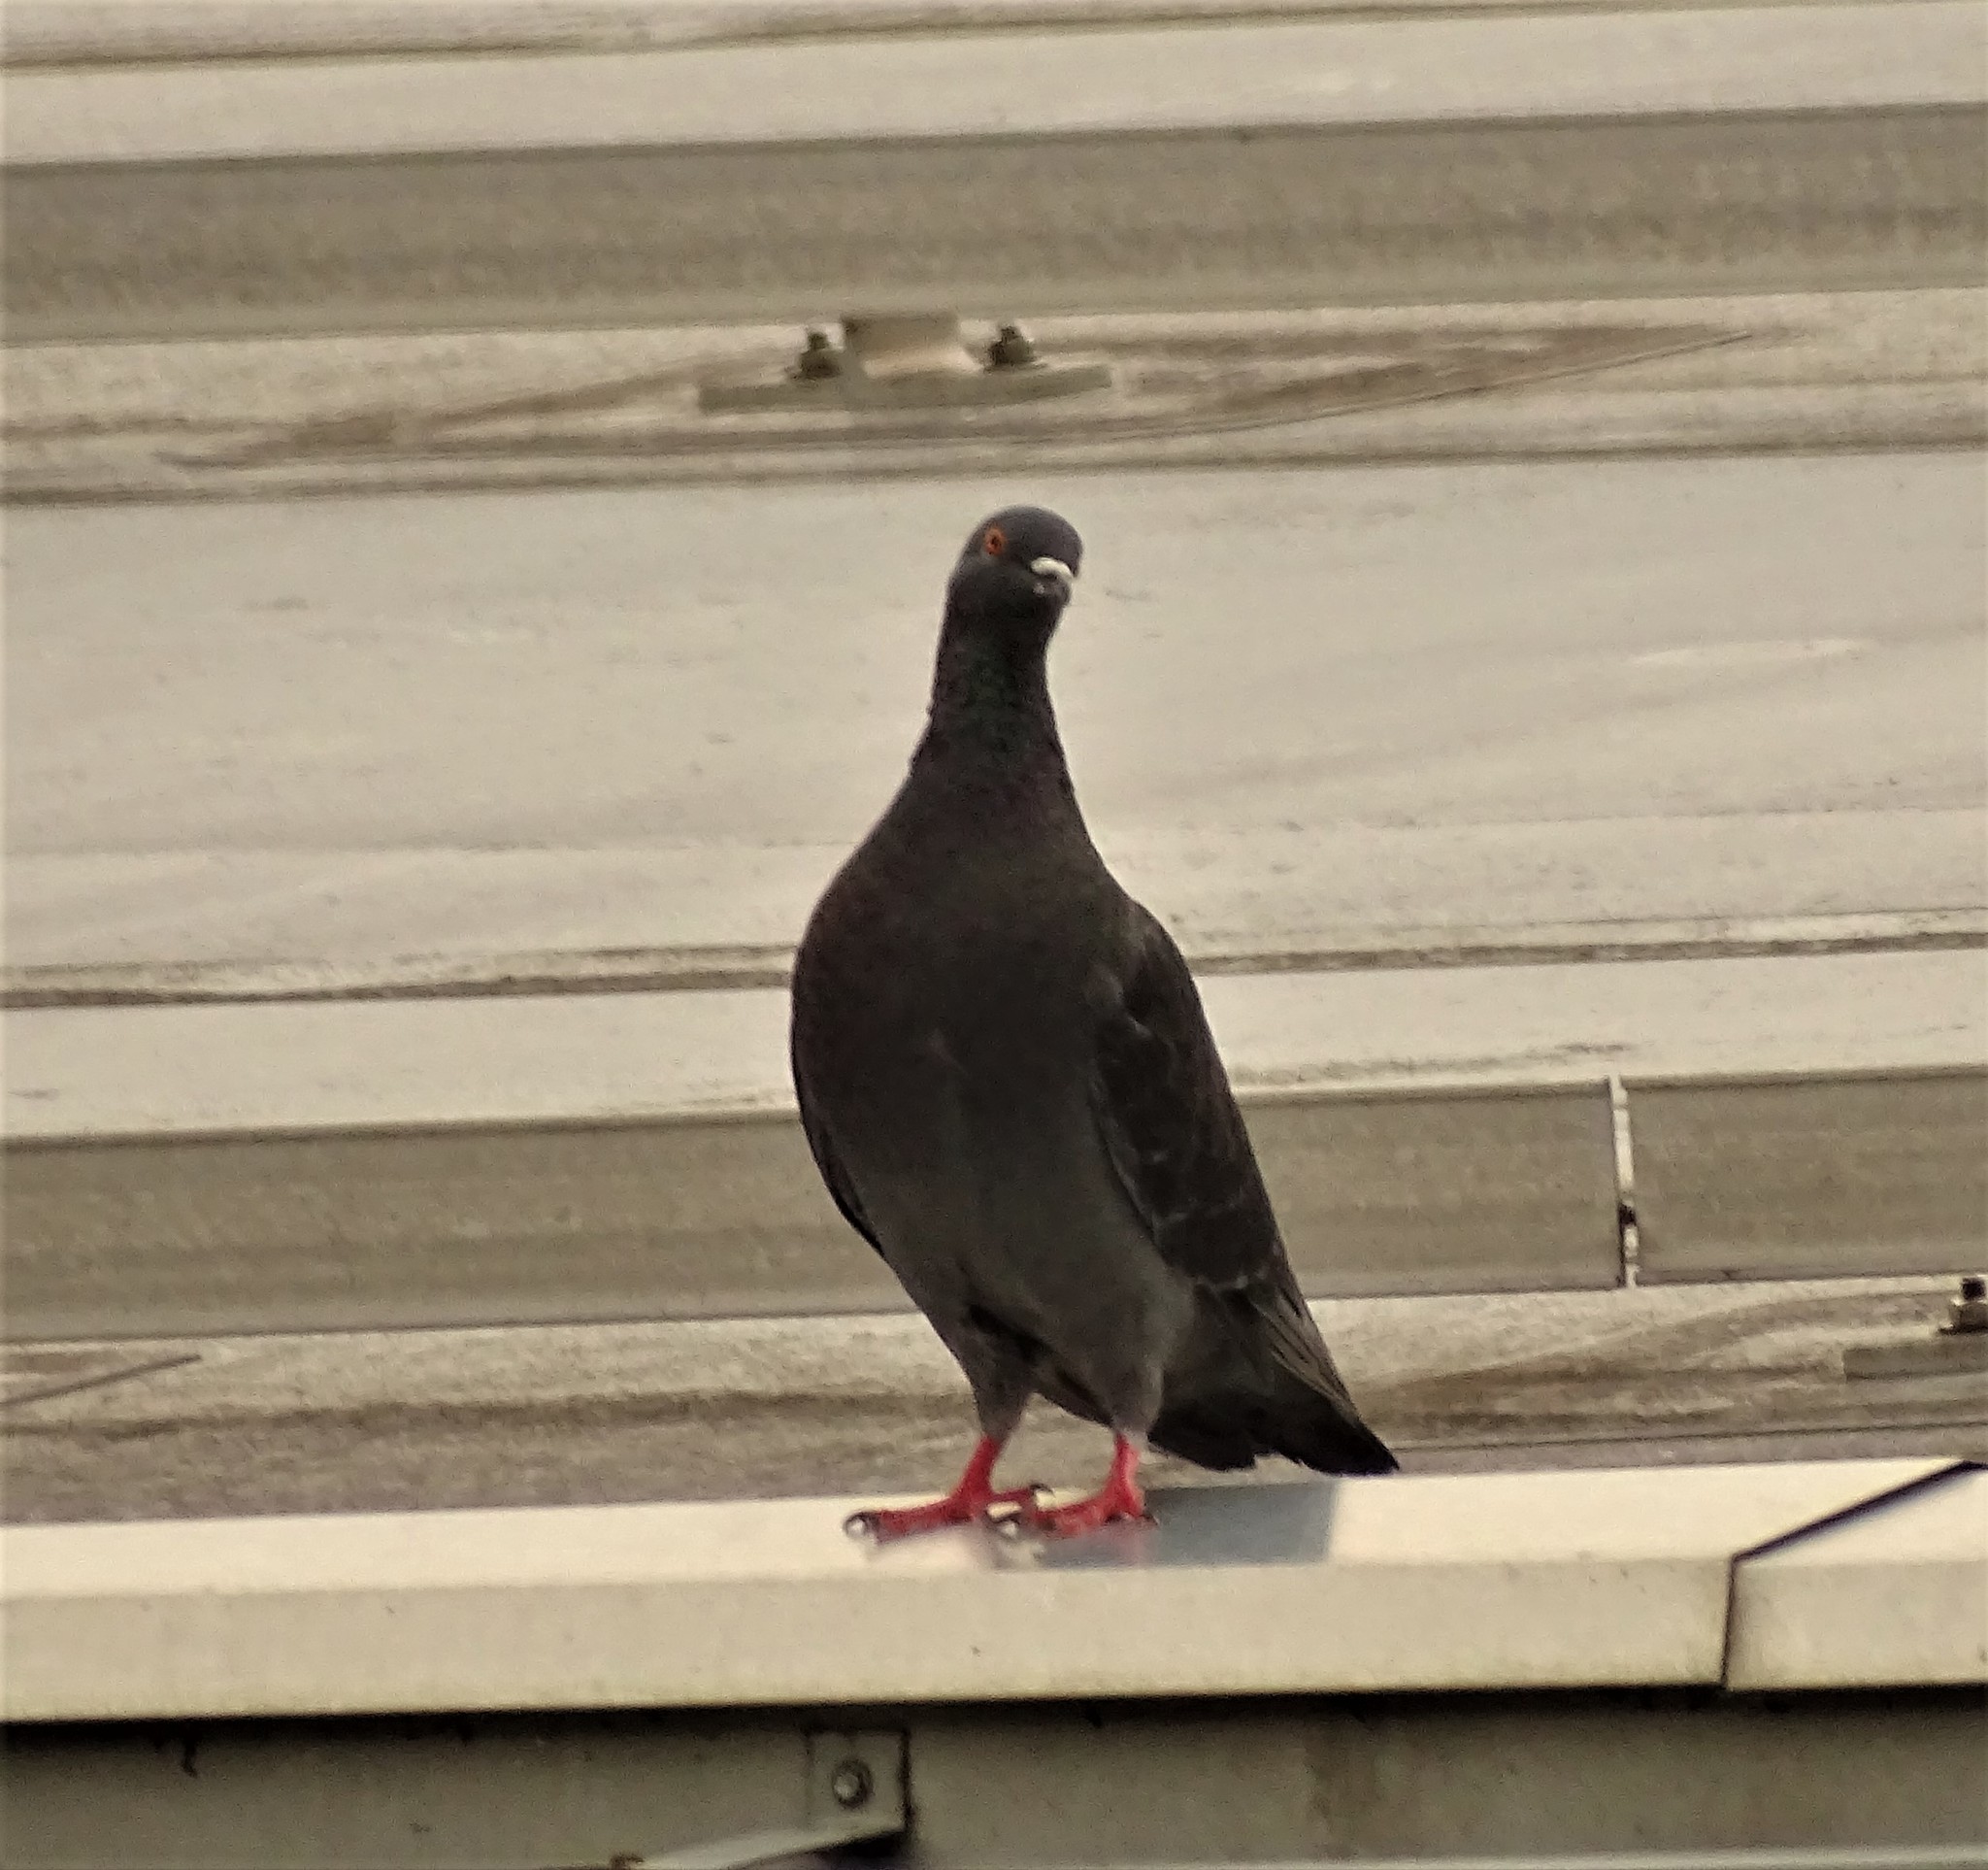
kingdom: Animalia
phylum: Chordata
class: Aves
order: Columbiformes
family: Columbidae
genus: Columba
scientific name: Columba livia
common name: Rock pigeon
